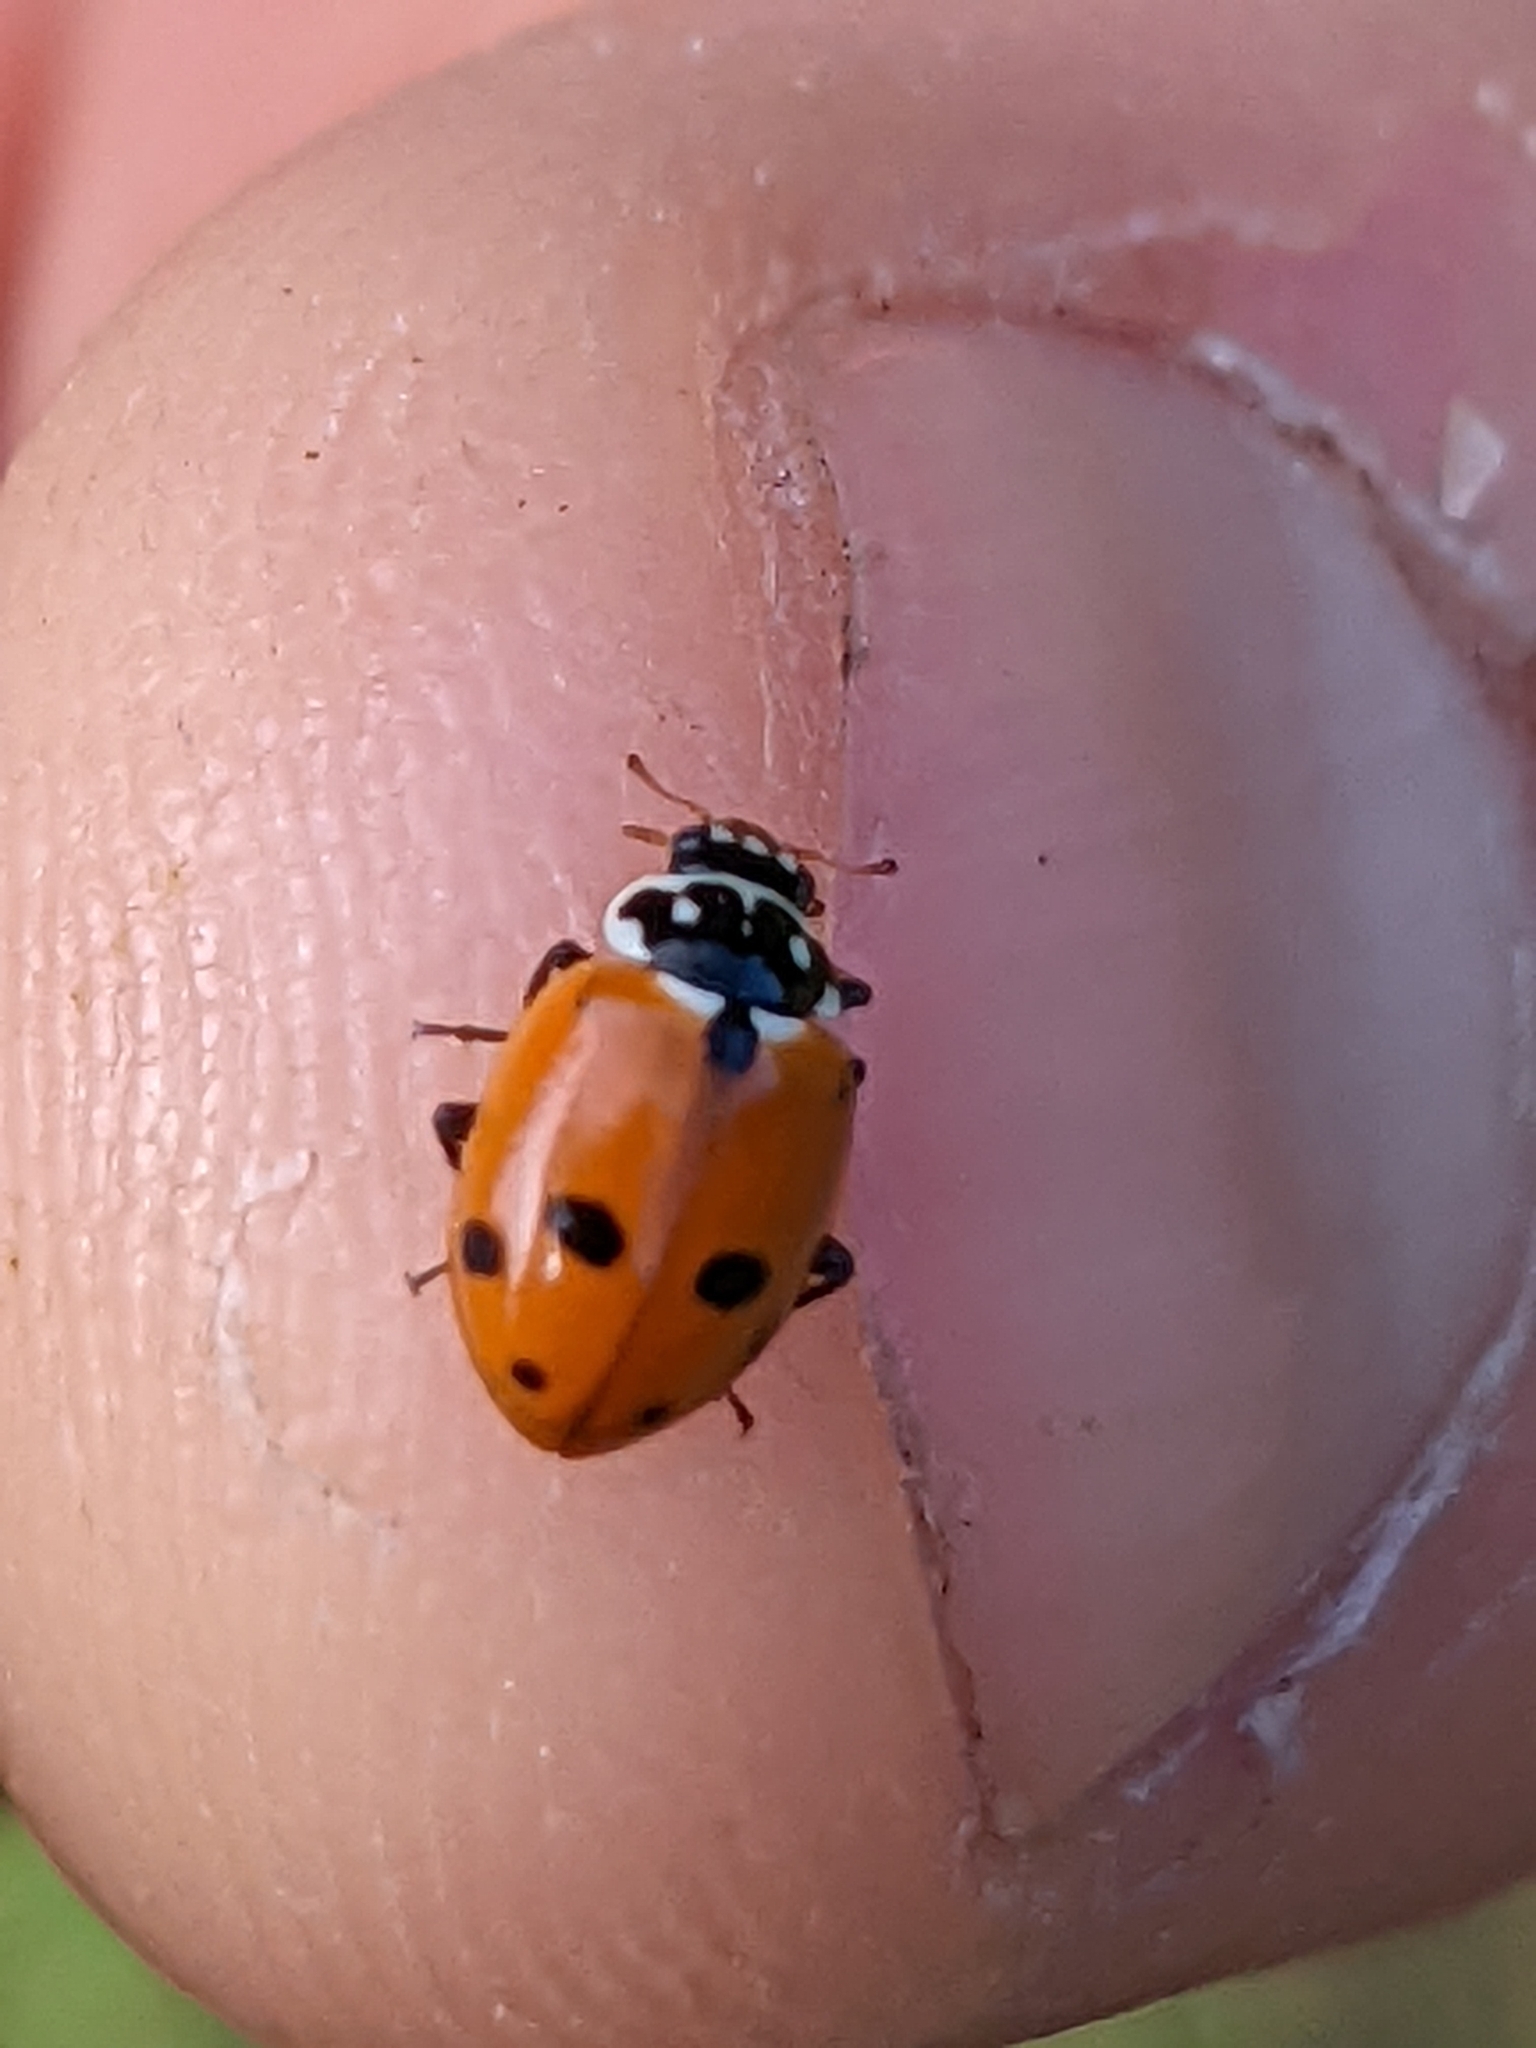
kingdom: Animalia
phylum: Arthropoda
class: Insecta
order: Coleoptera
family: Coccinellidae
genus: Hippodamia
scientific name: Hippodamia variegata
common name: Ladybird beetle
